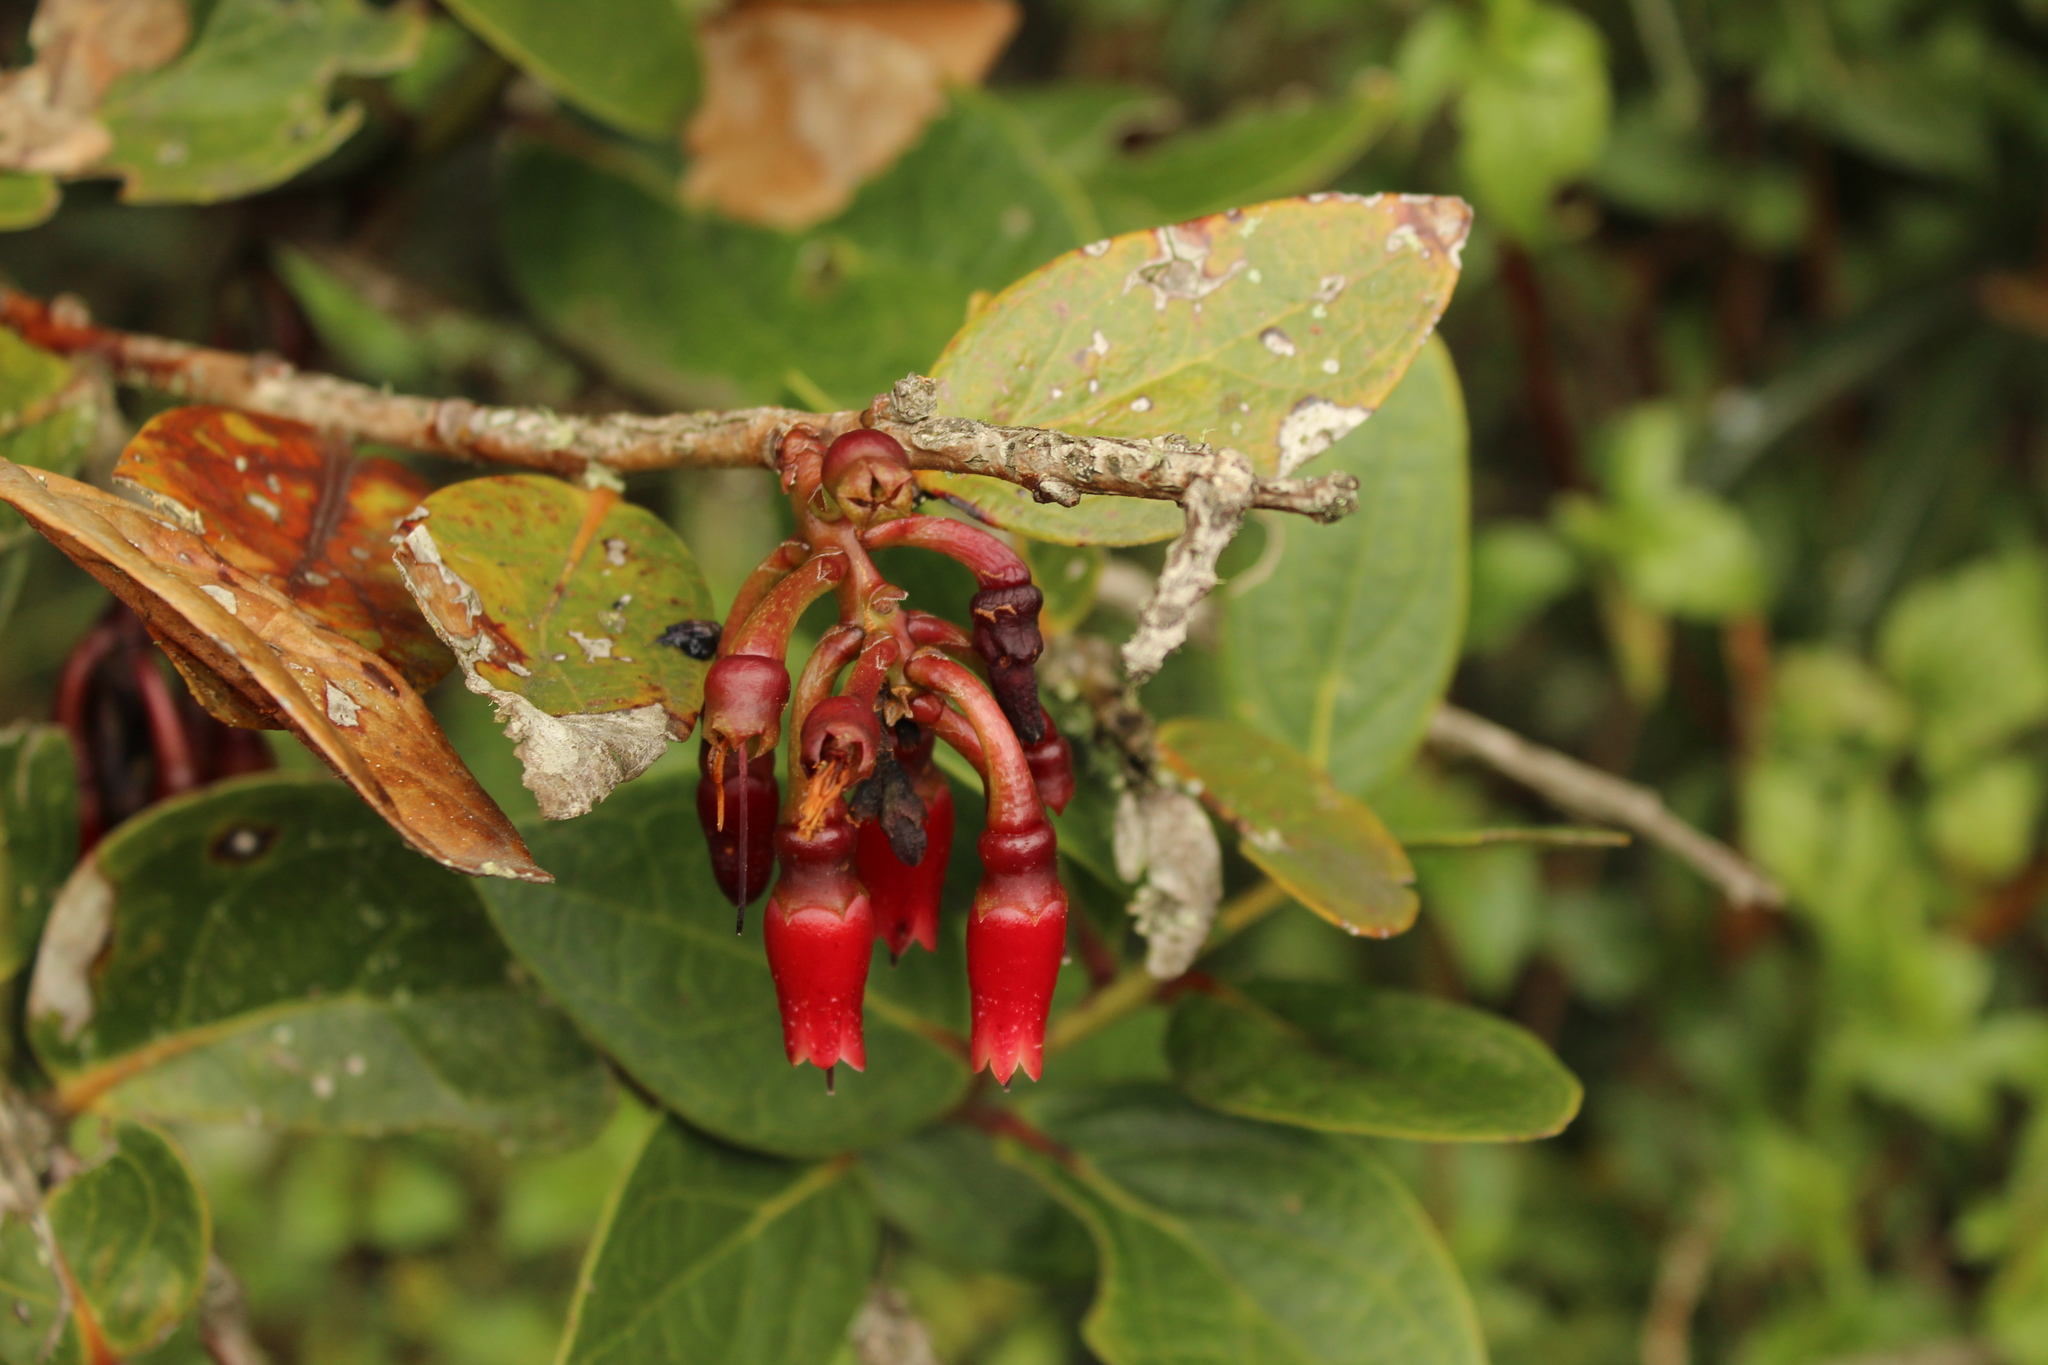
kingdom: Plantae
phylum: Tracheophyta
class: Magnoliopsida
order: Ericales
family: Ericaceae
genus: Macleania
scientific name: Macleania rupestris
